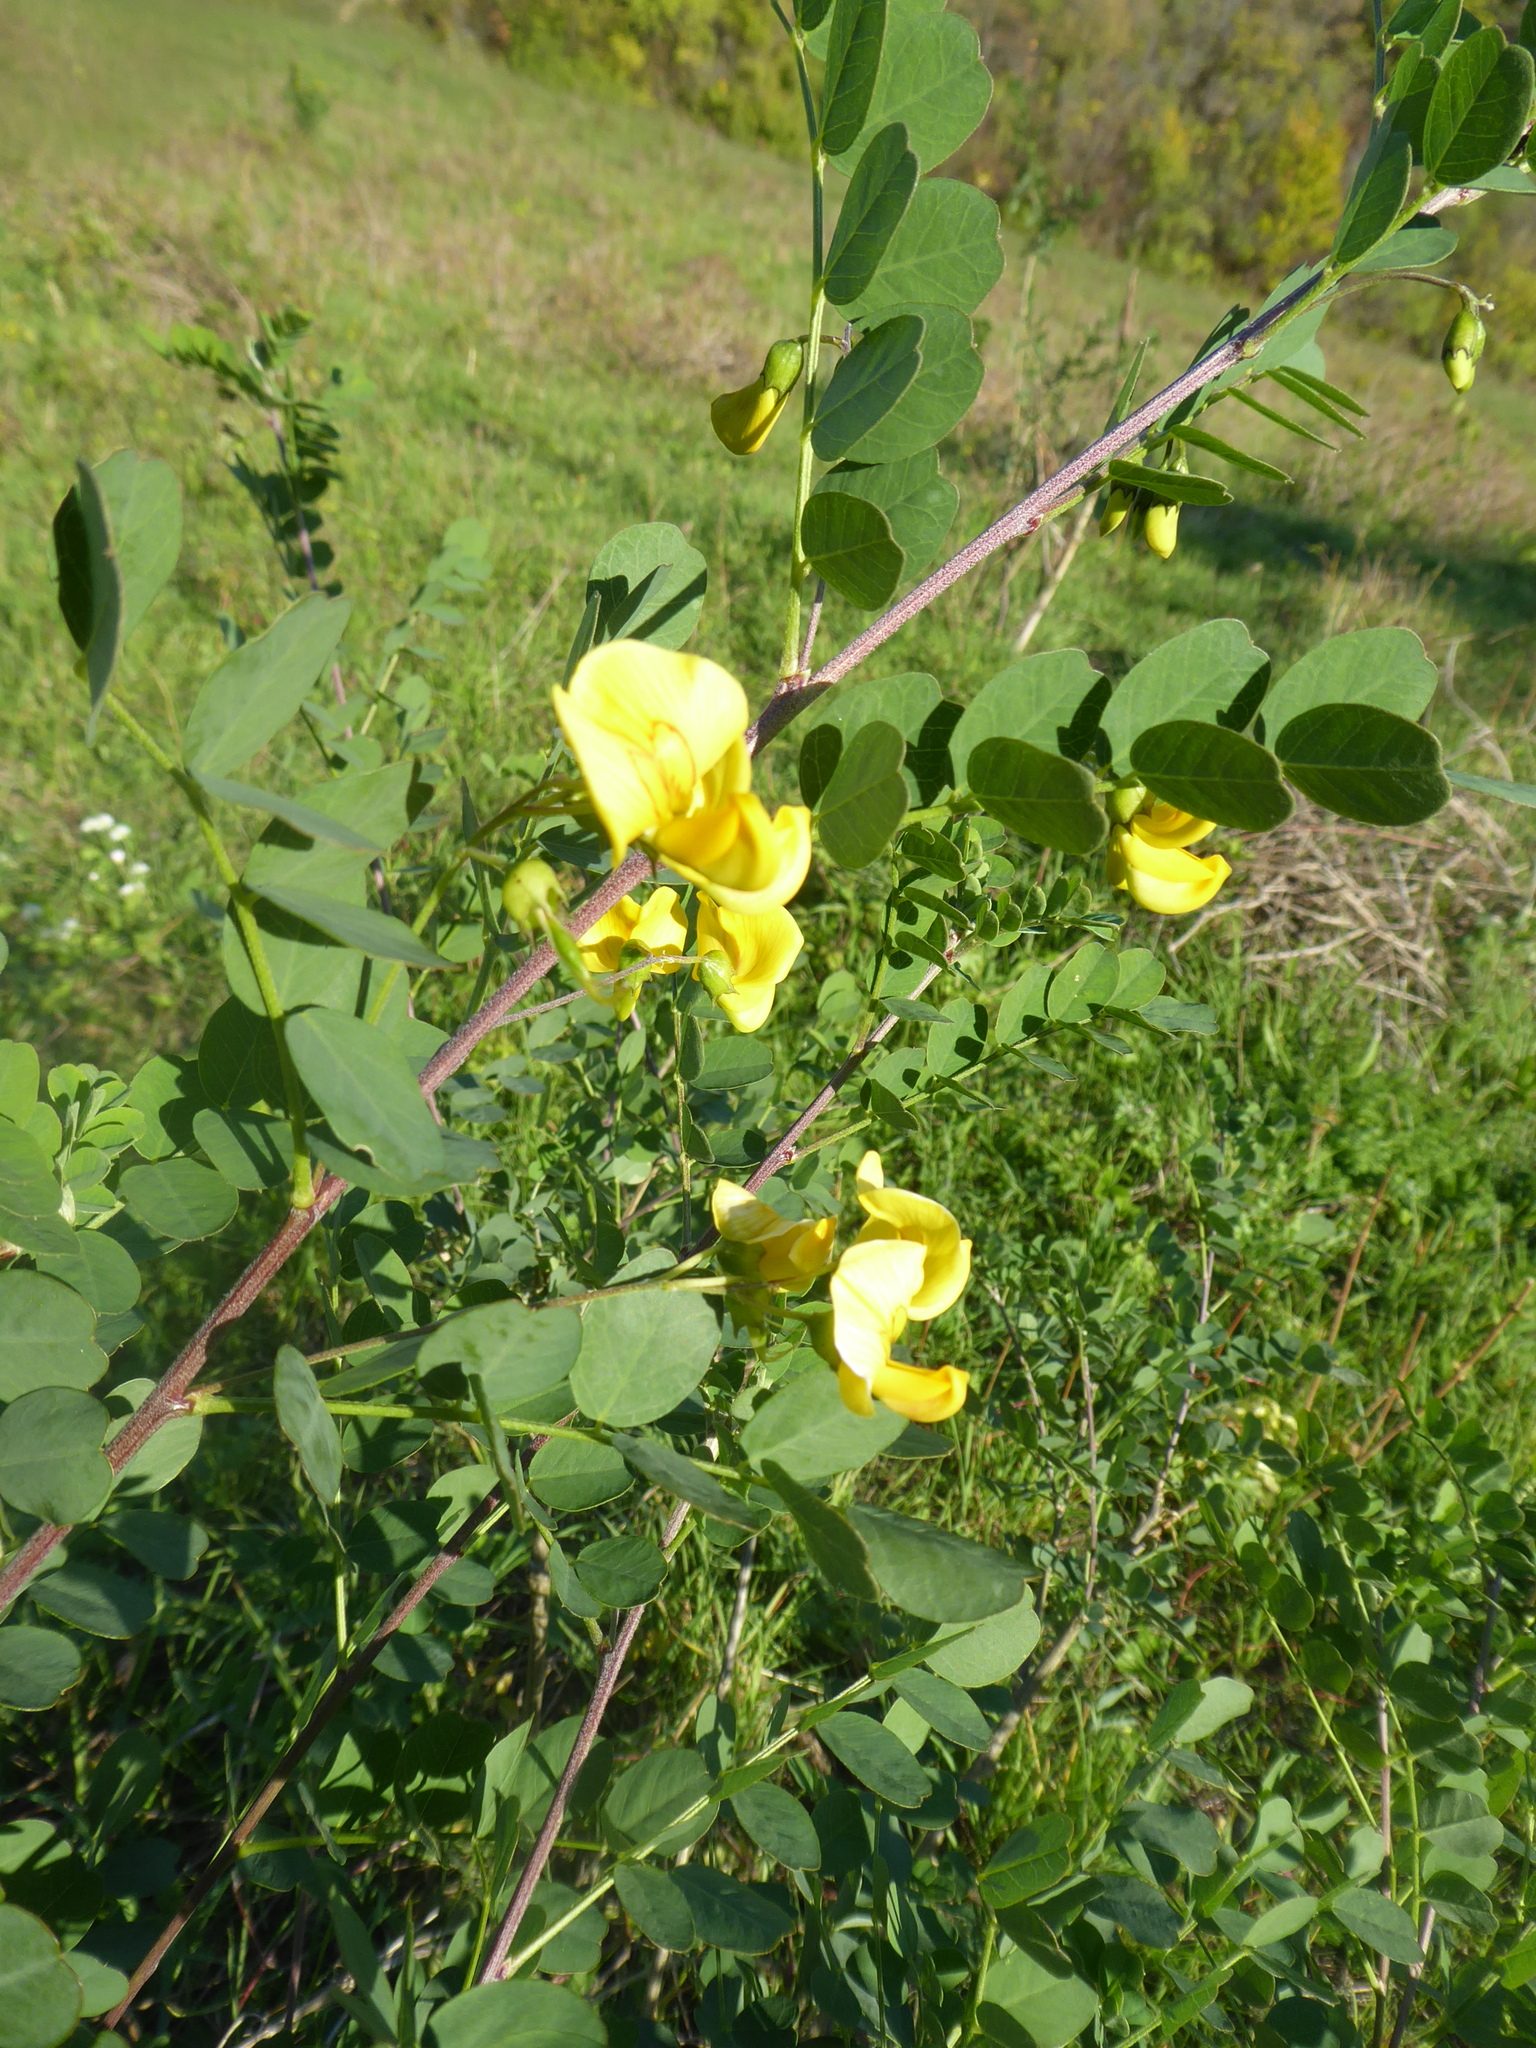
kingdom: Plantae
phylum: Tracheophyta
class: Magnoliopsida
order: Fabales
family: Fabaceae
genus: Colutea
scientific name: Colutea arborescens
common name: Bladder-senna
